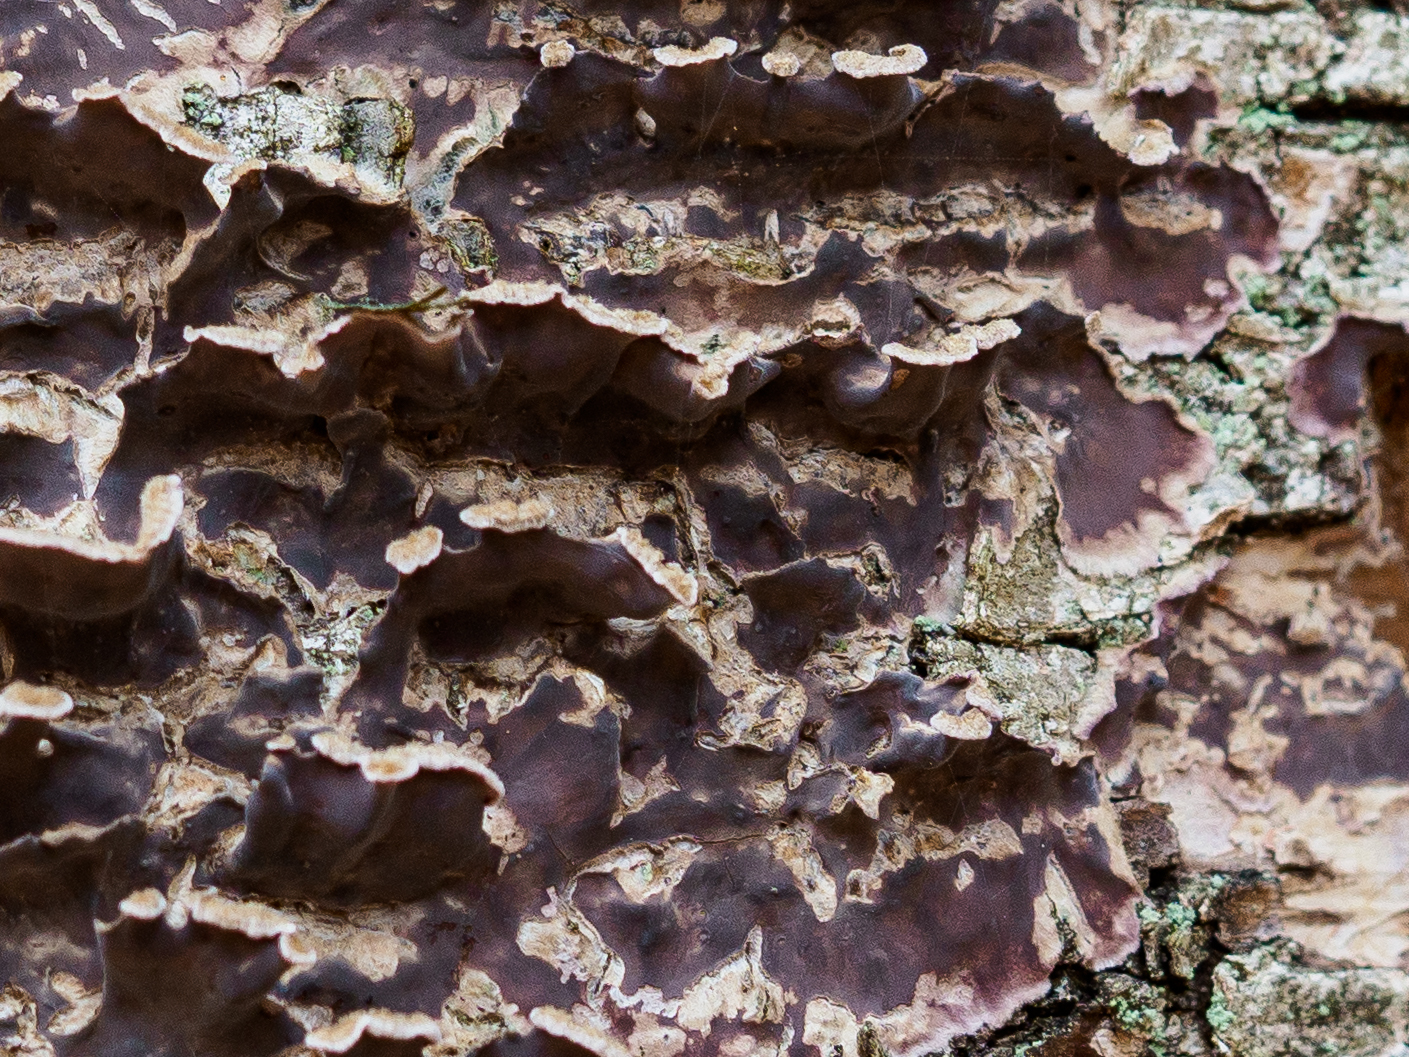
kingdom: Fungi
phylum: Basidiomycota
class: Agaricomycetes
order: Agaricales
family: Cyphellaceae
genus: Chondrostereum
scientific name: Chondrostereum purpureum
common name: Silver leaf disease
